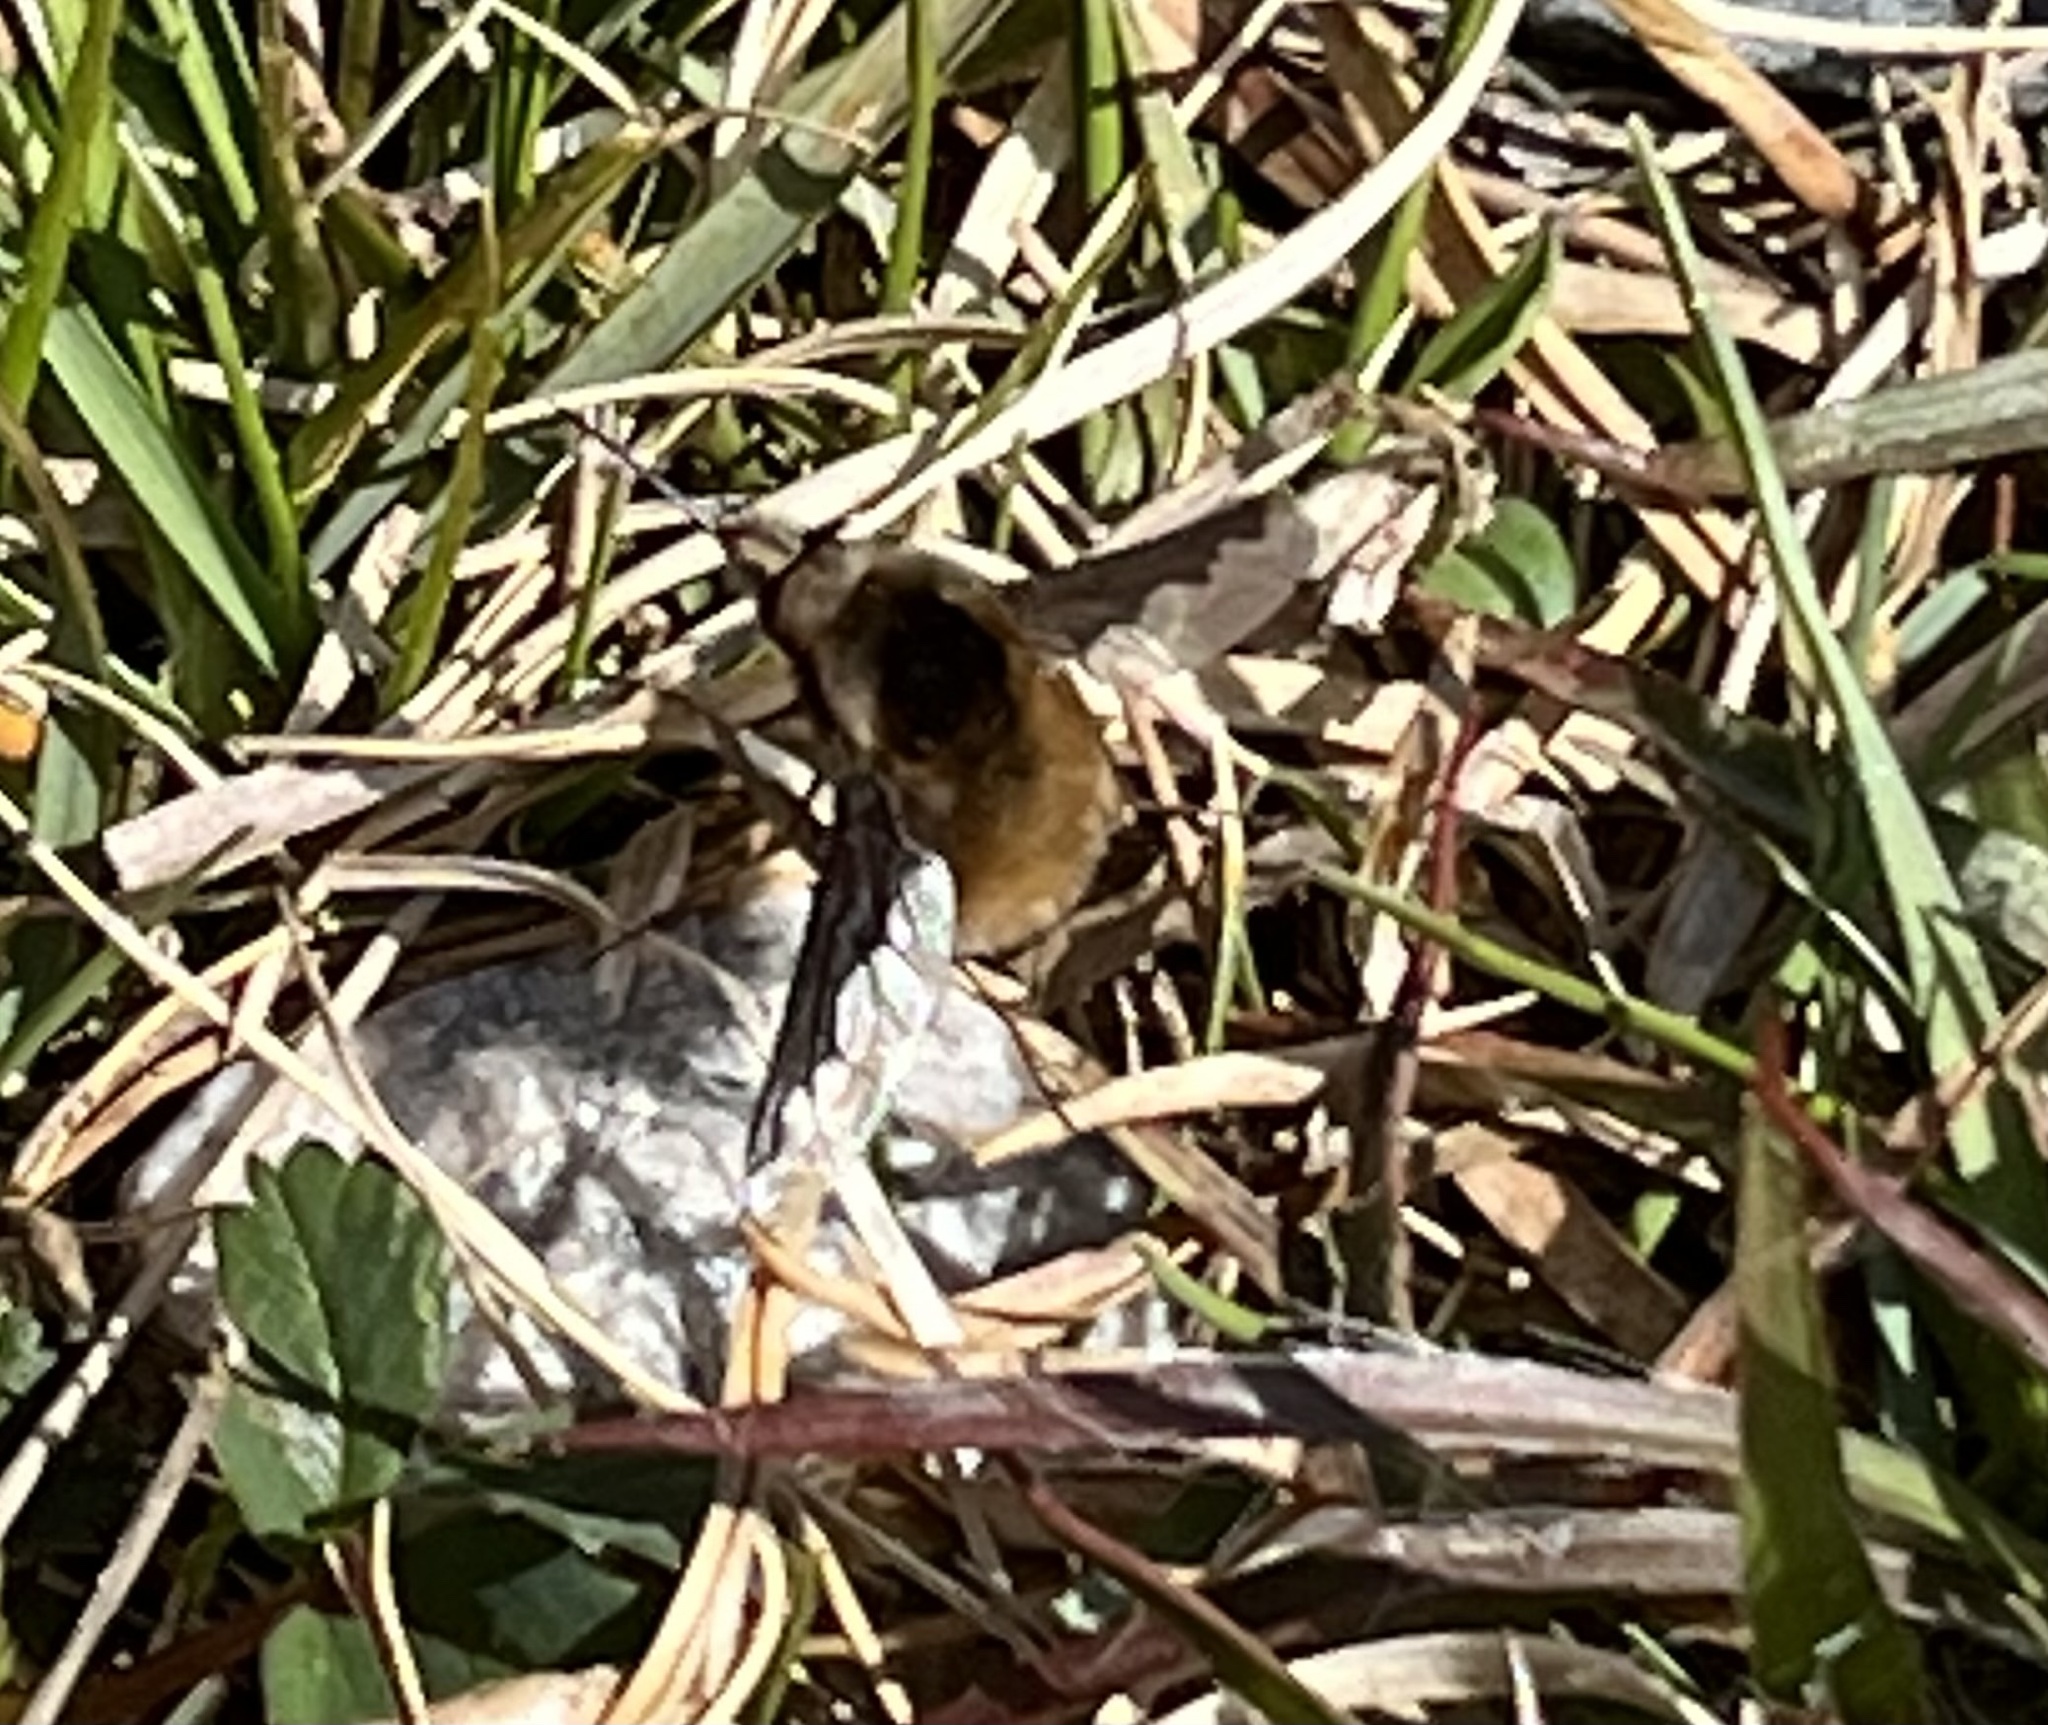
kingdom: Animalia
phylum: Arthropoda
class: Insecta
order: Diptera
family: Bombyliidae
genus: Bombylius
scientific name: Bombylius major
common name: Bee fly
